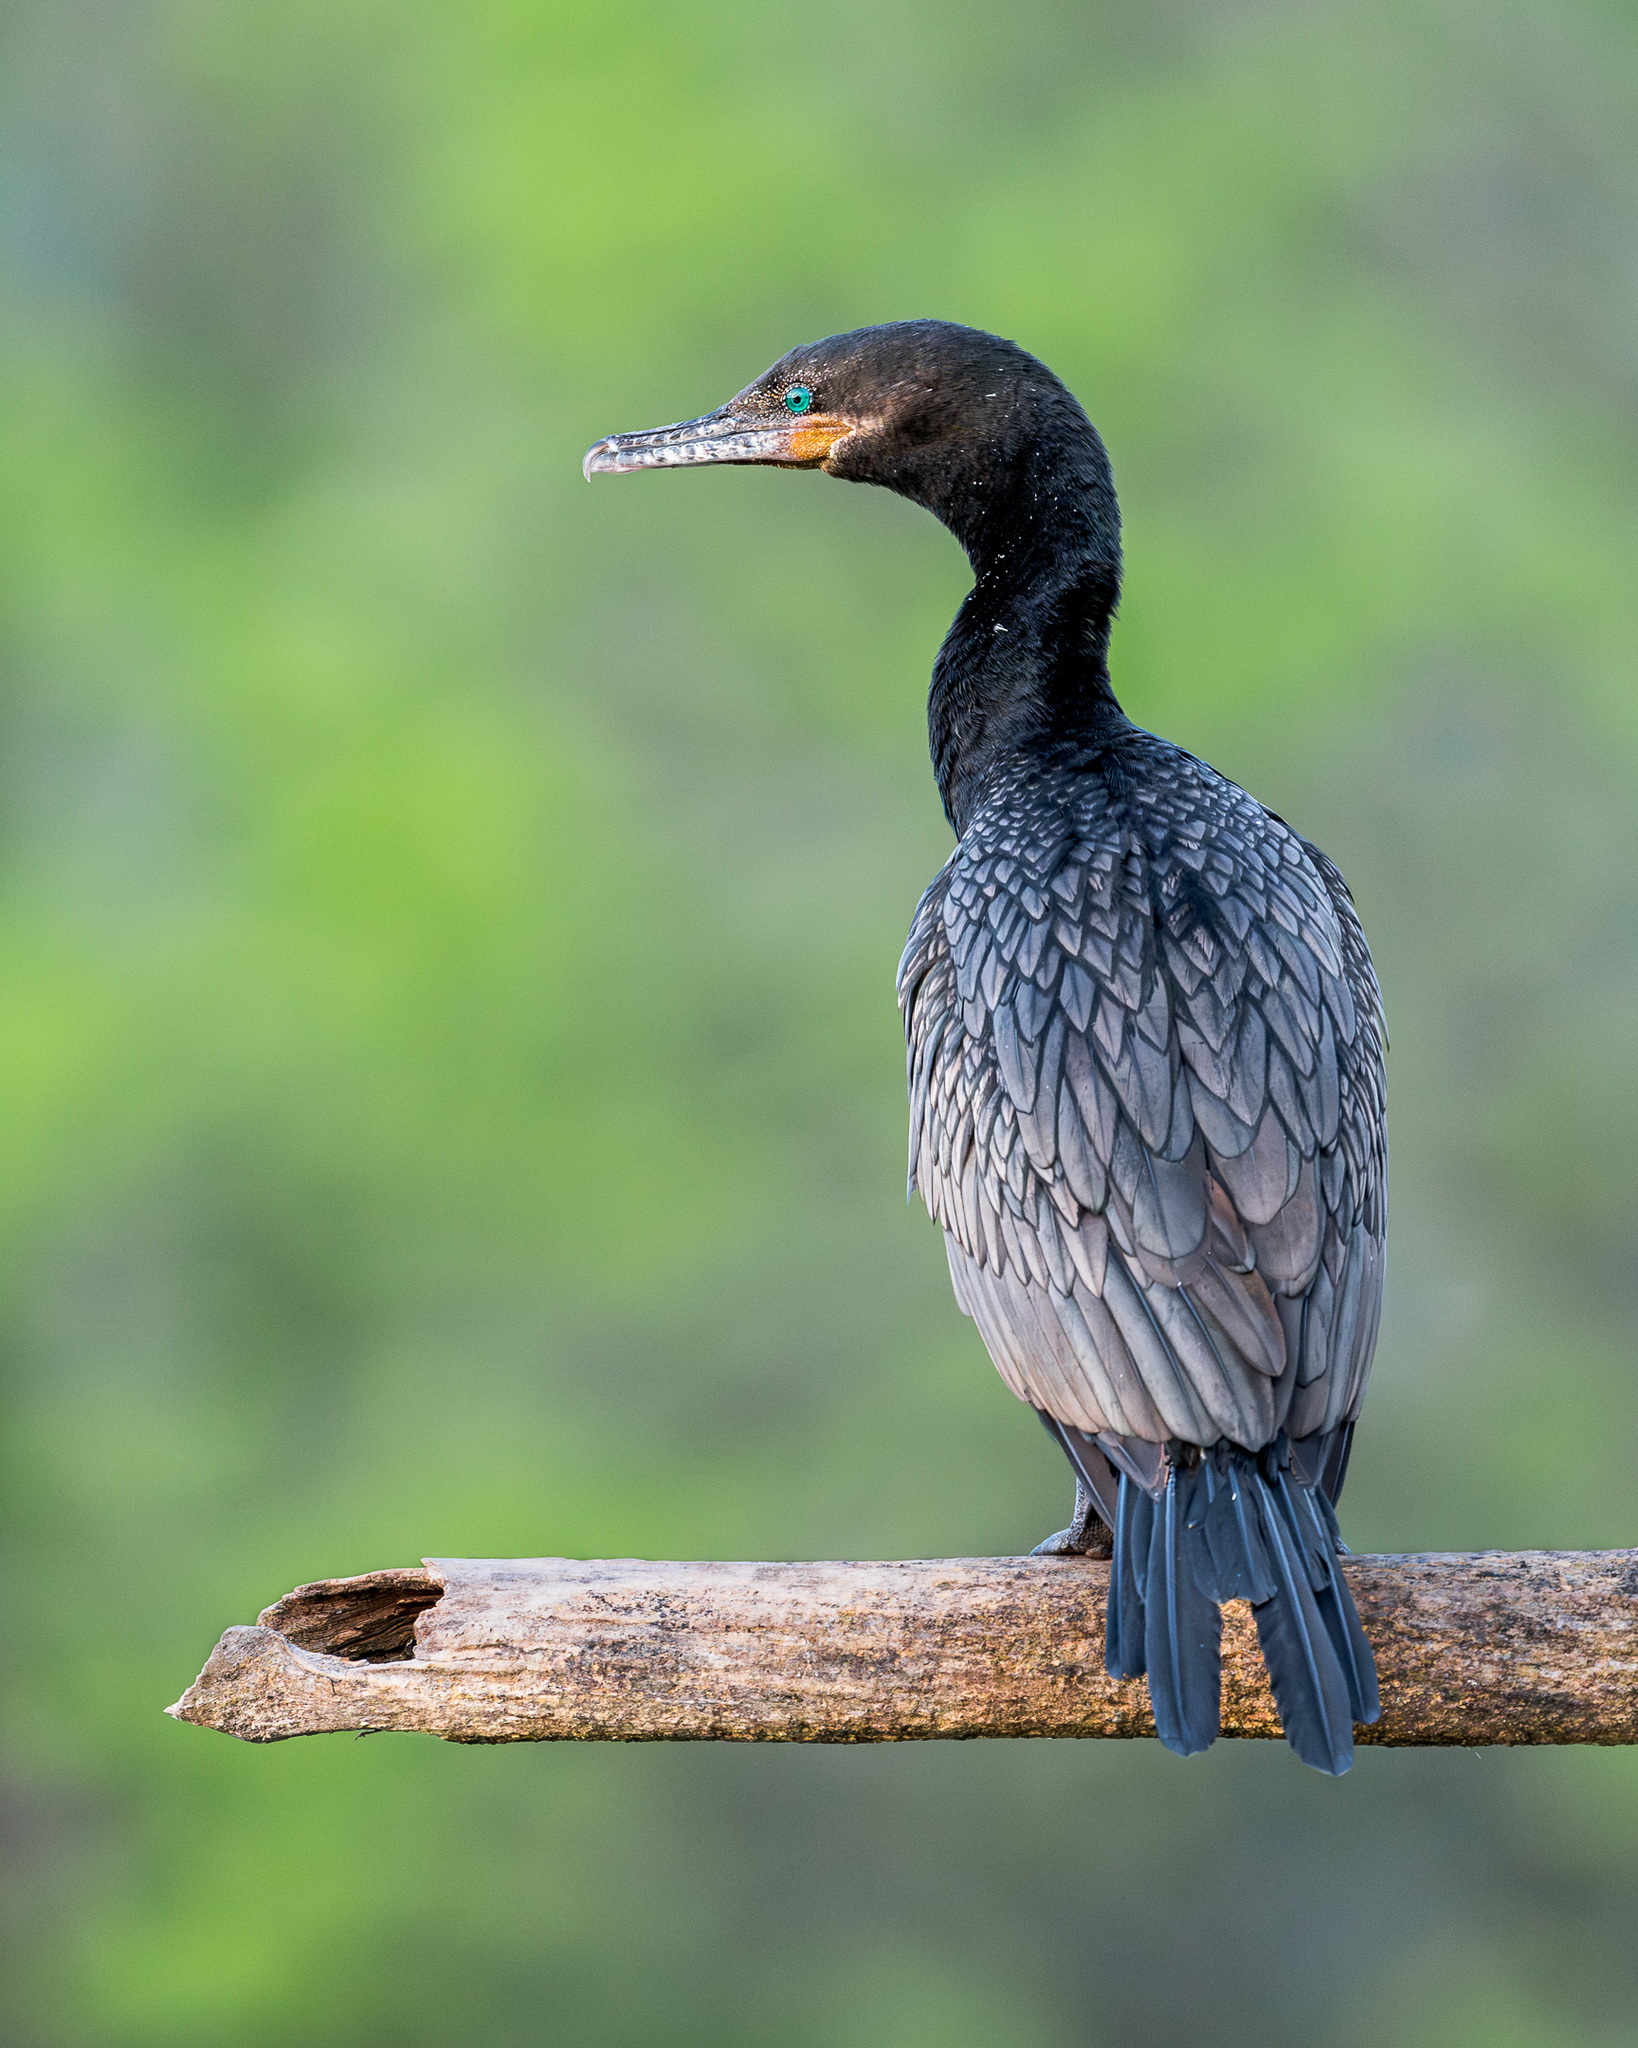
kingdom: Animalia
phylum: Chordata
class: Aves
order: Suliformes
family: Phalacrocoracidae
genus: Phalacrocorax
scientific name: Phalacrocorax brasilianus
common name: Neotropic cormorant
